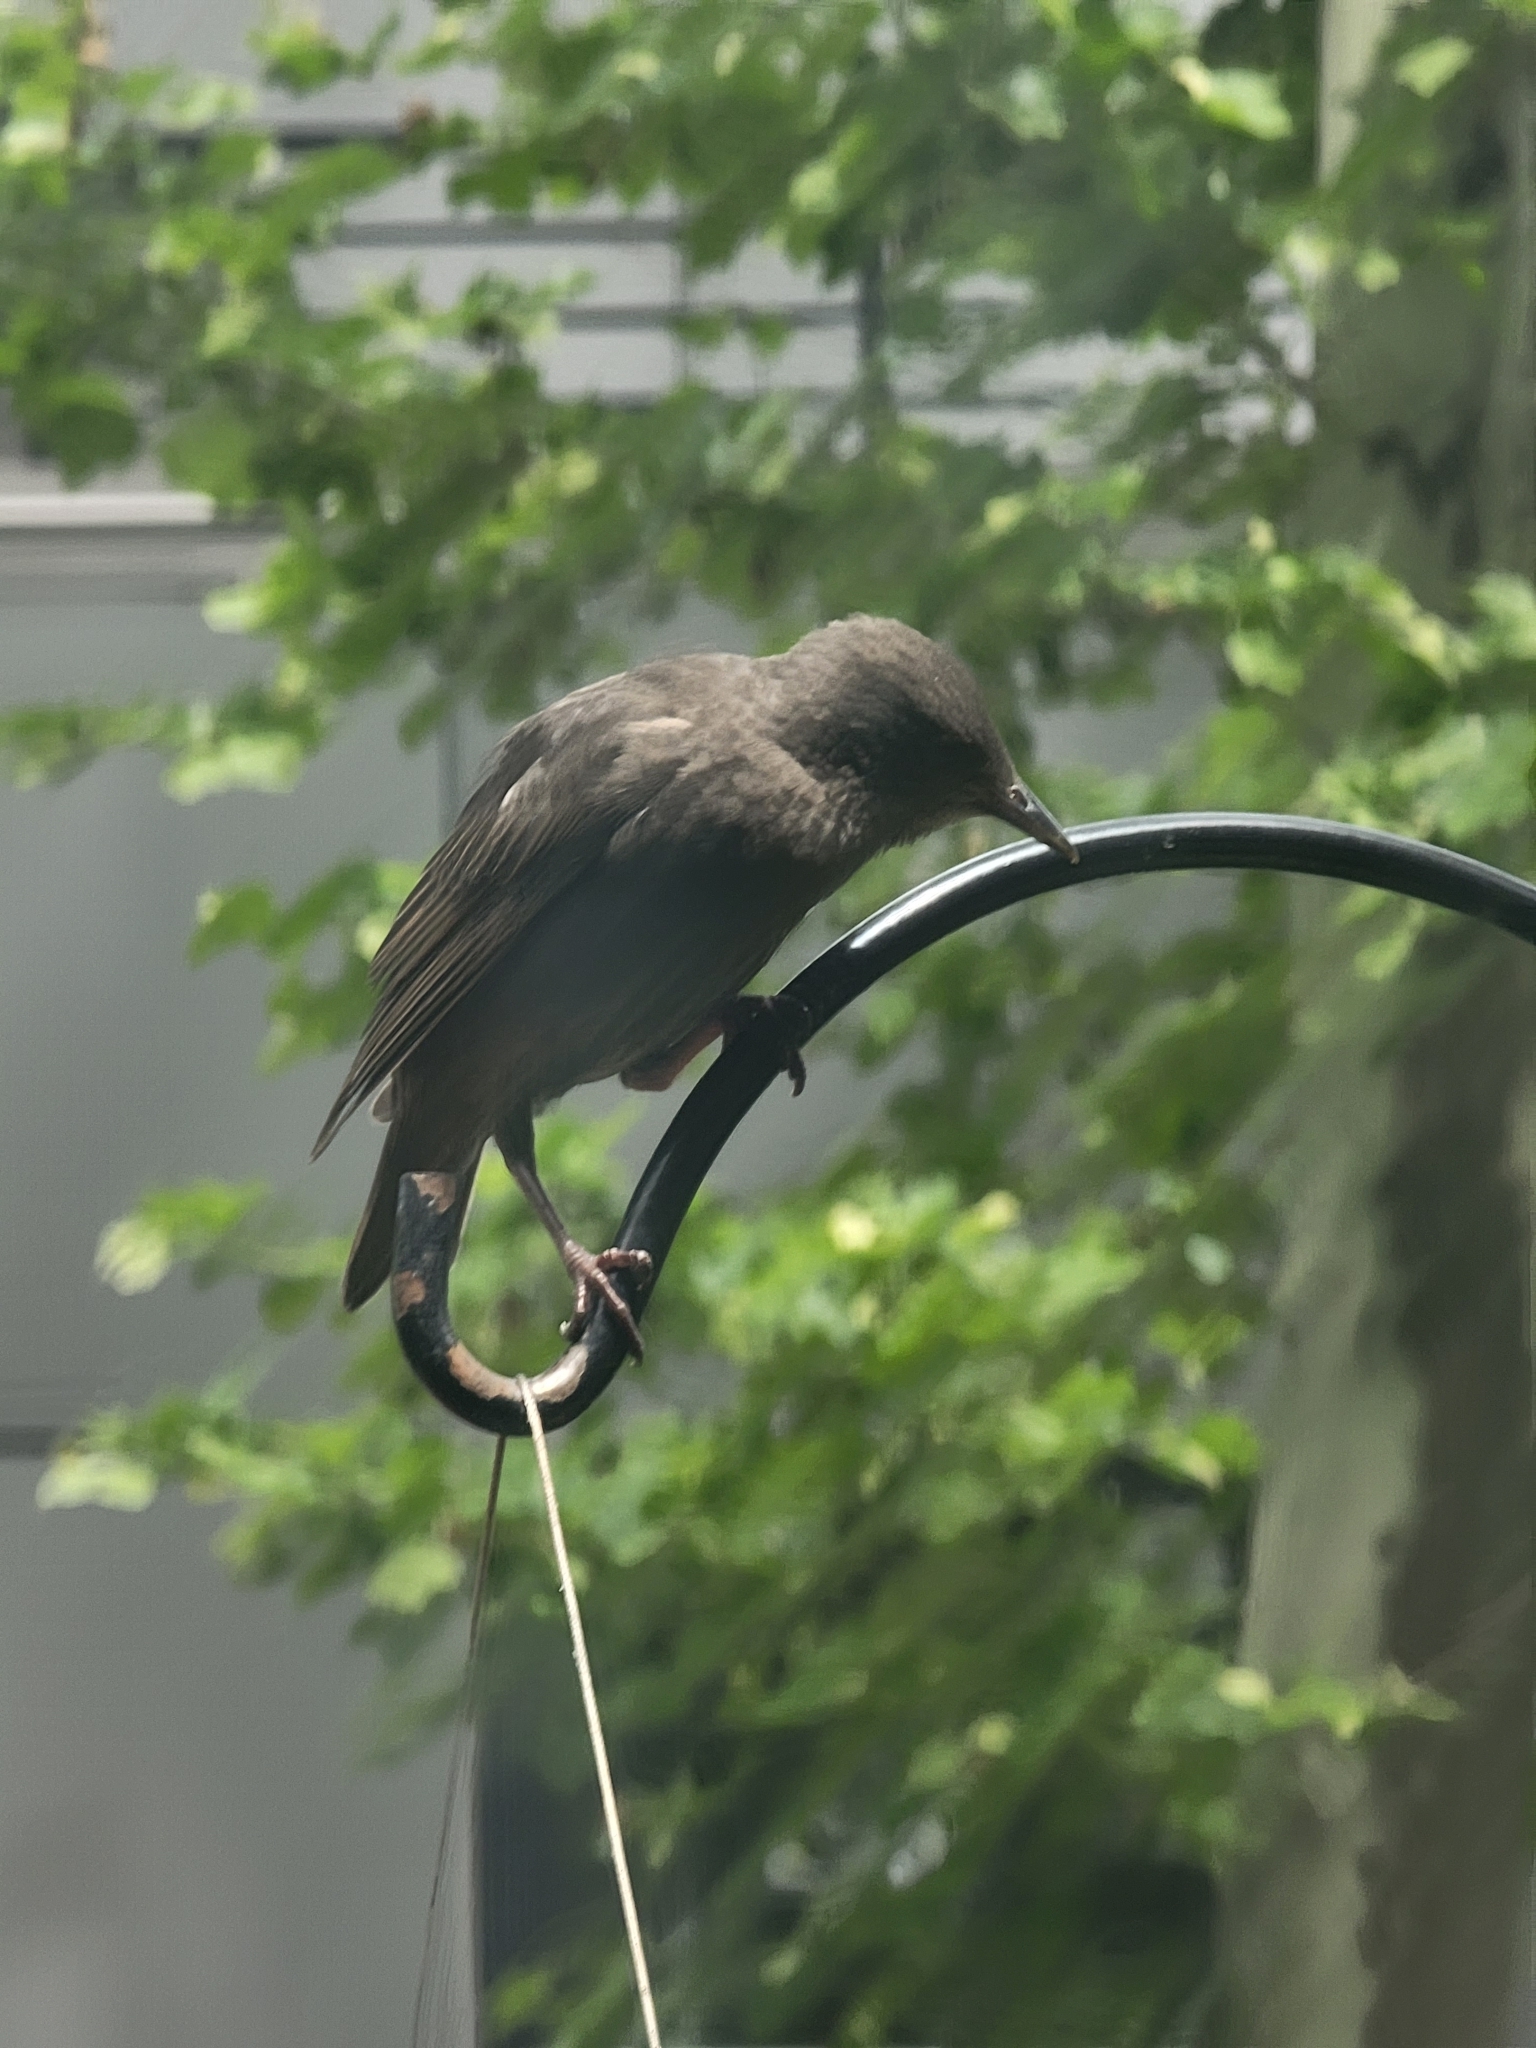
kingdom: Animalia
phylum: Chordata
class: Aves
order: Passeriformes
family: Sturnidae
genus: Sturnus
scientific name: Sturnus vulgaris
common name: Common starling
